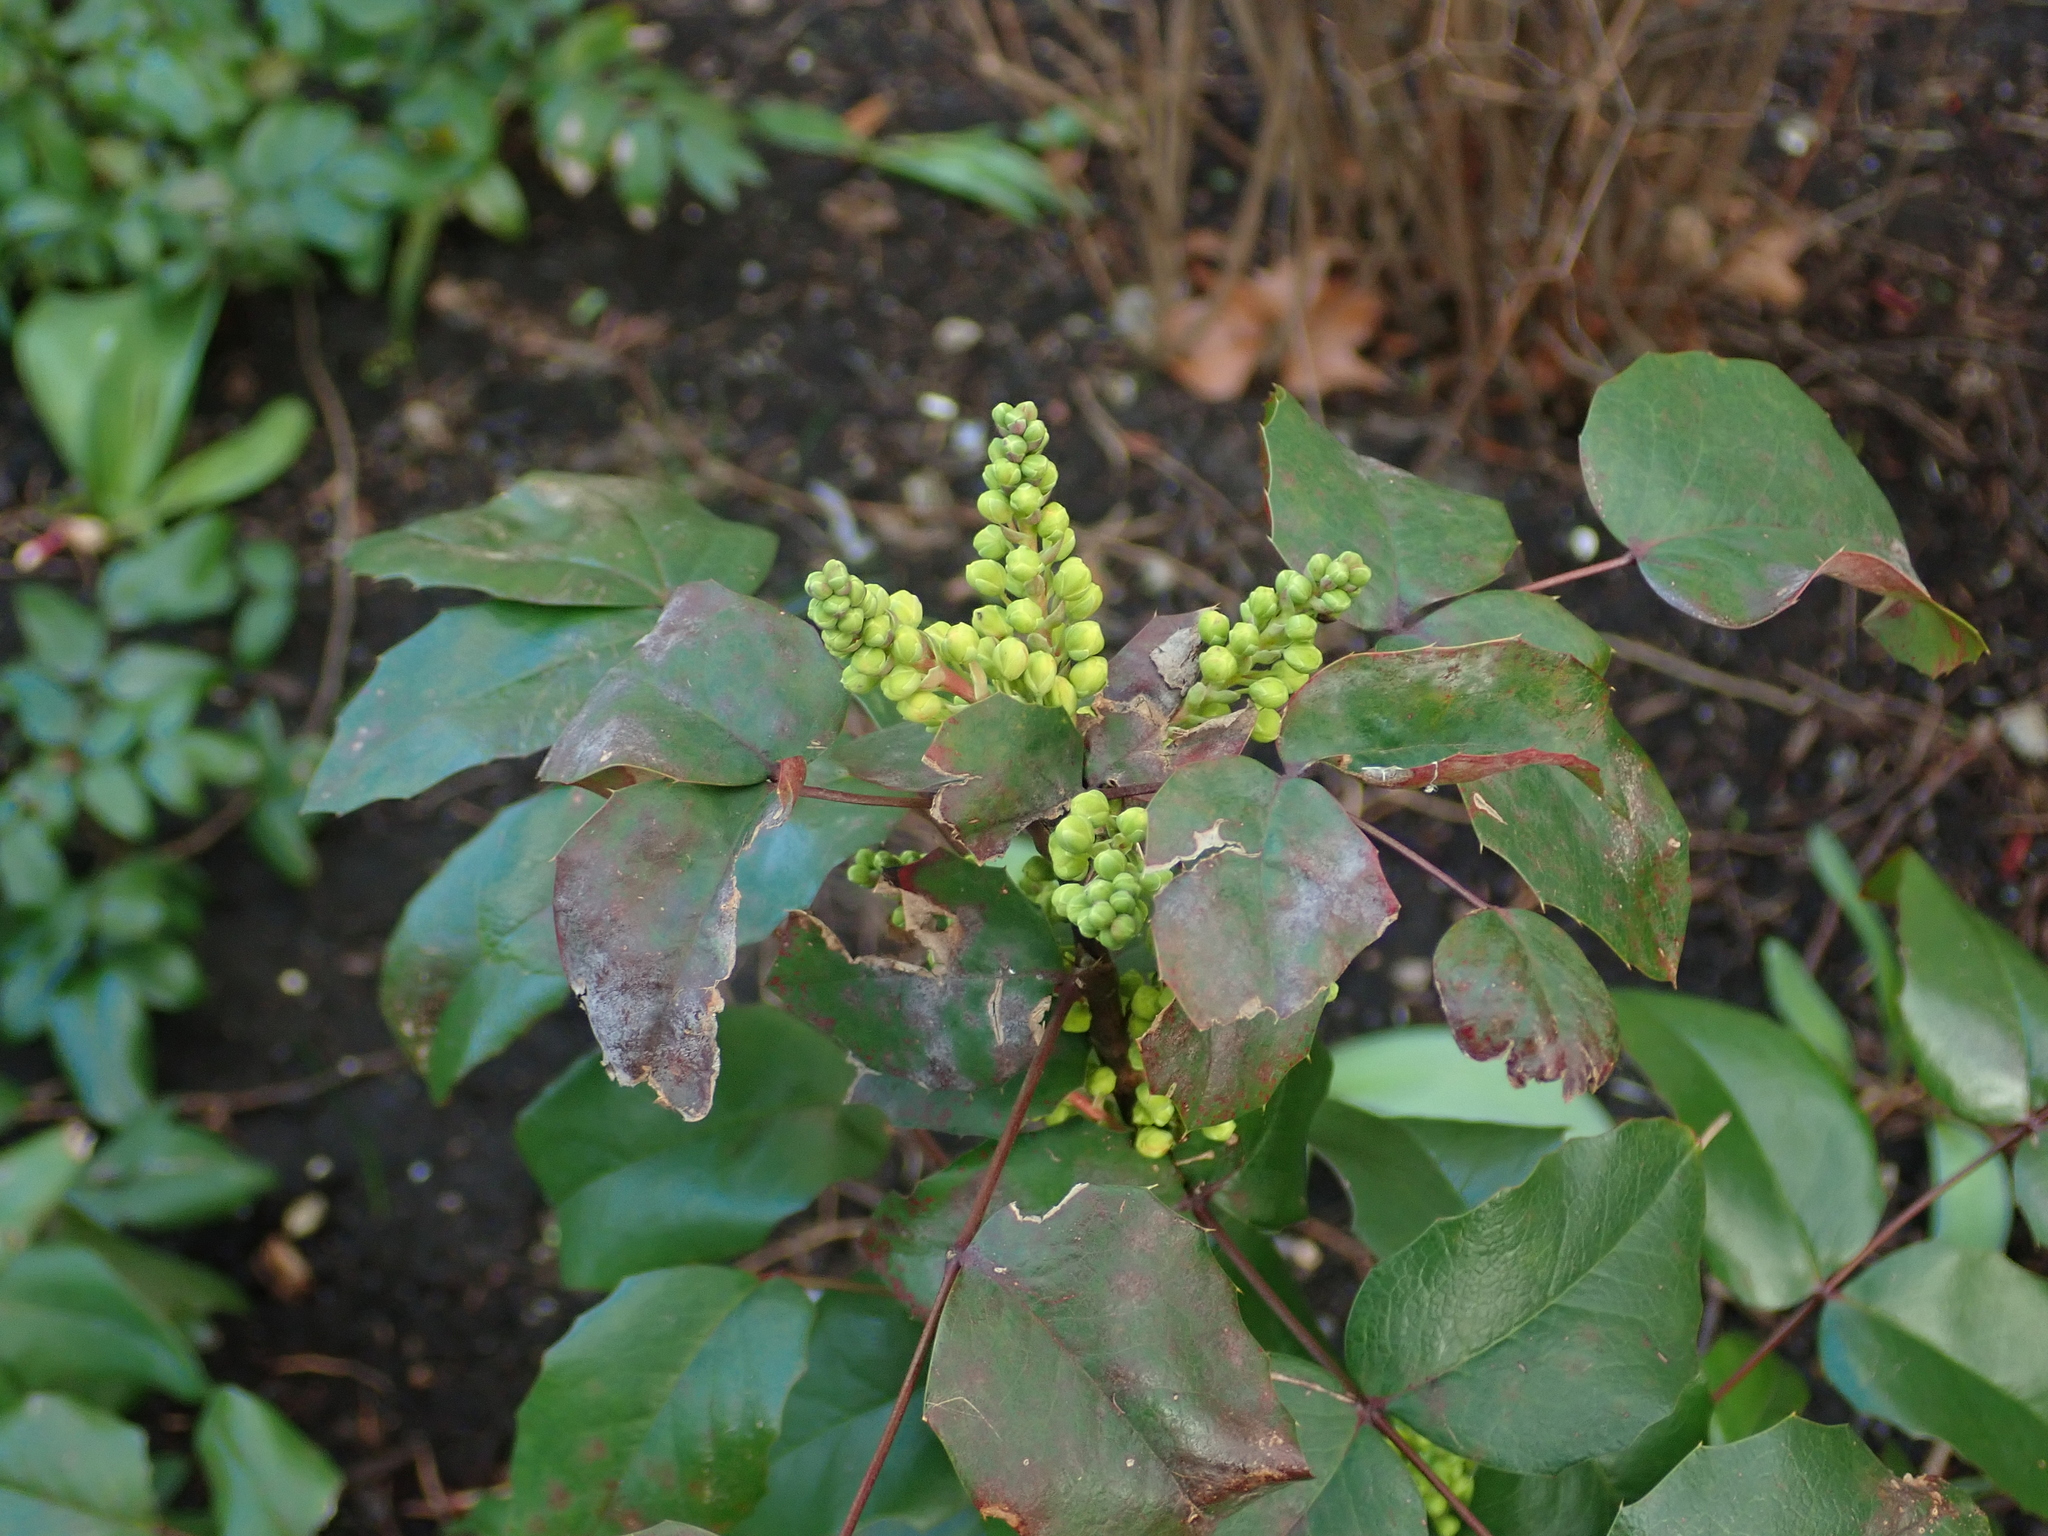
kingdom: Plantae
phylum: Tracheophyta
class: Magnoliopsida
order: Ranunculales
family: Berberidaceae
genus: Mahonia
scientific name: Mahonia aquifolium
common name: Oregon-grape
